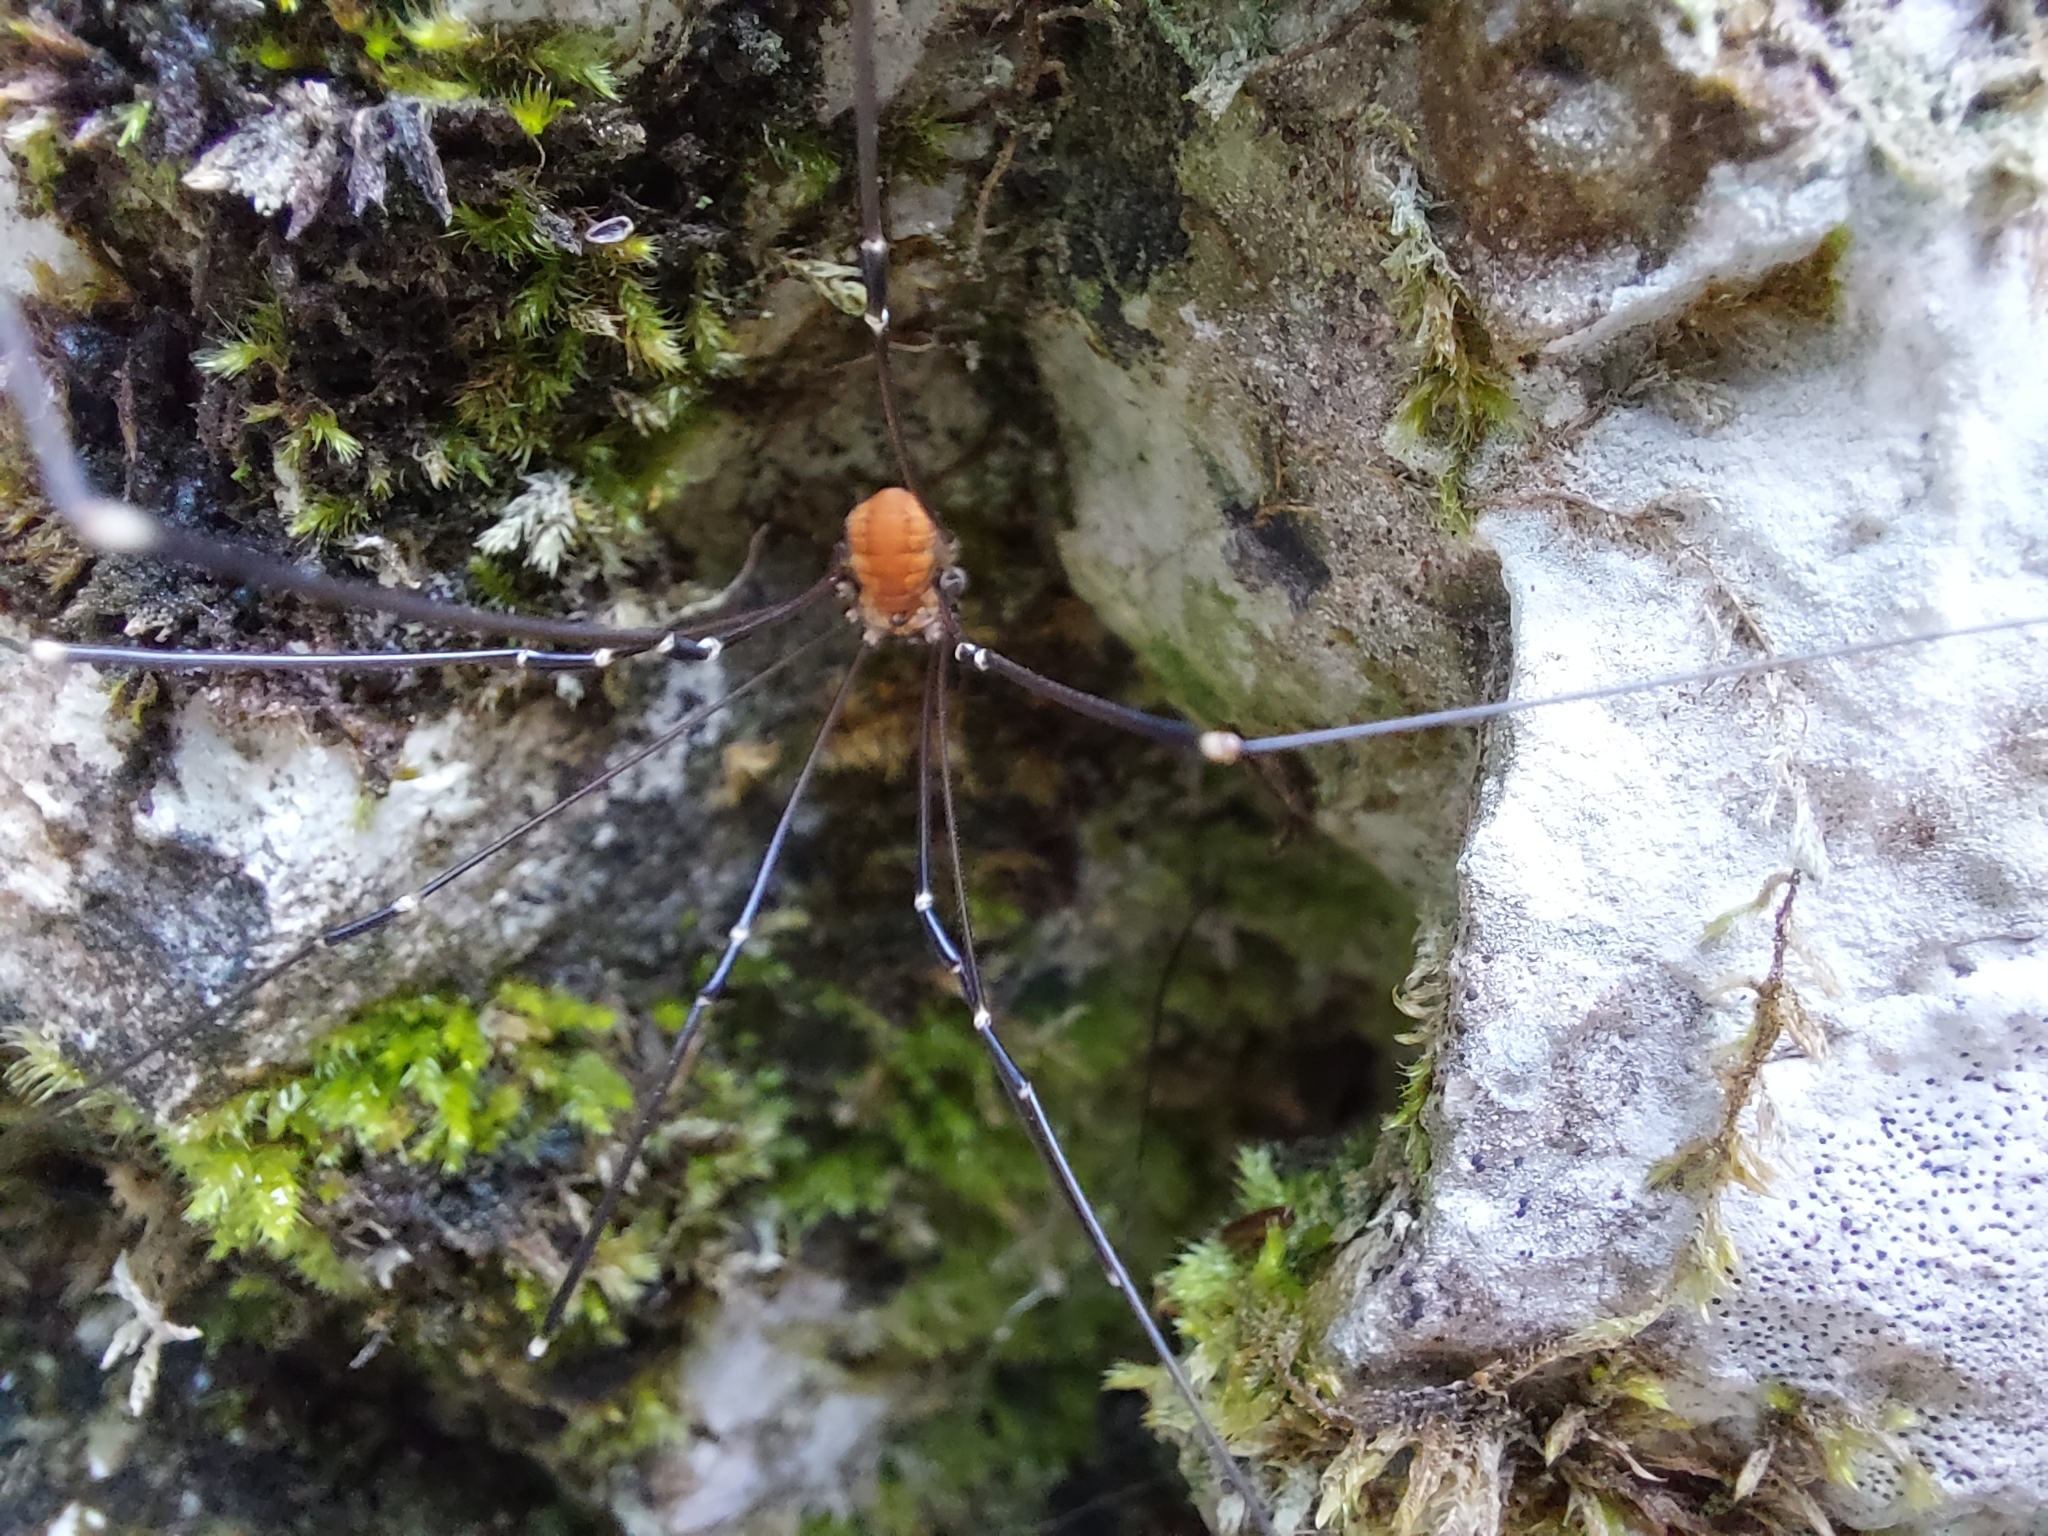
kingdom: Animalia
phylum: Arthropoda
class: Arachnida
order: Opiliones
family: Sclerosomatidae
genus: Leiobunum
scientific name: Leiobunum limbatum
